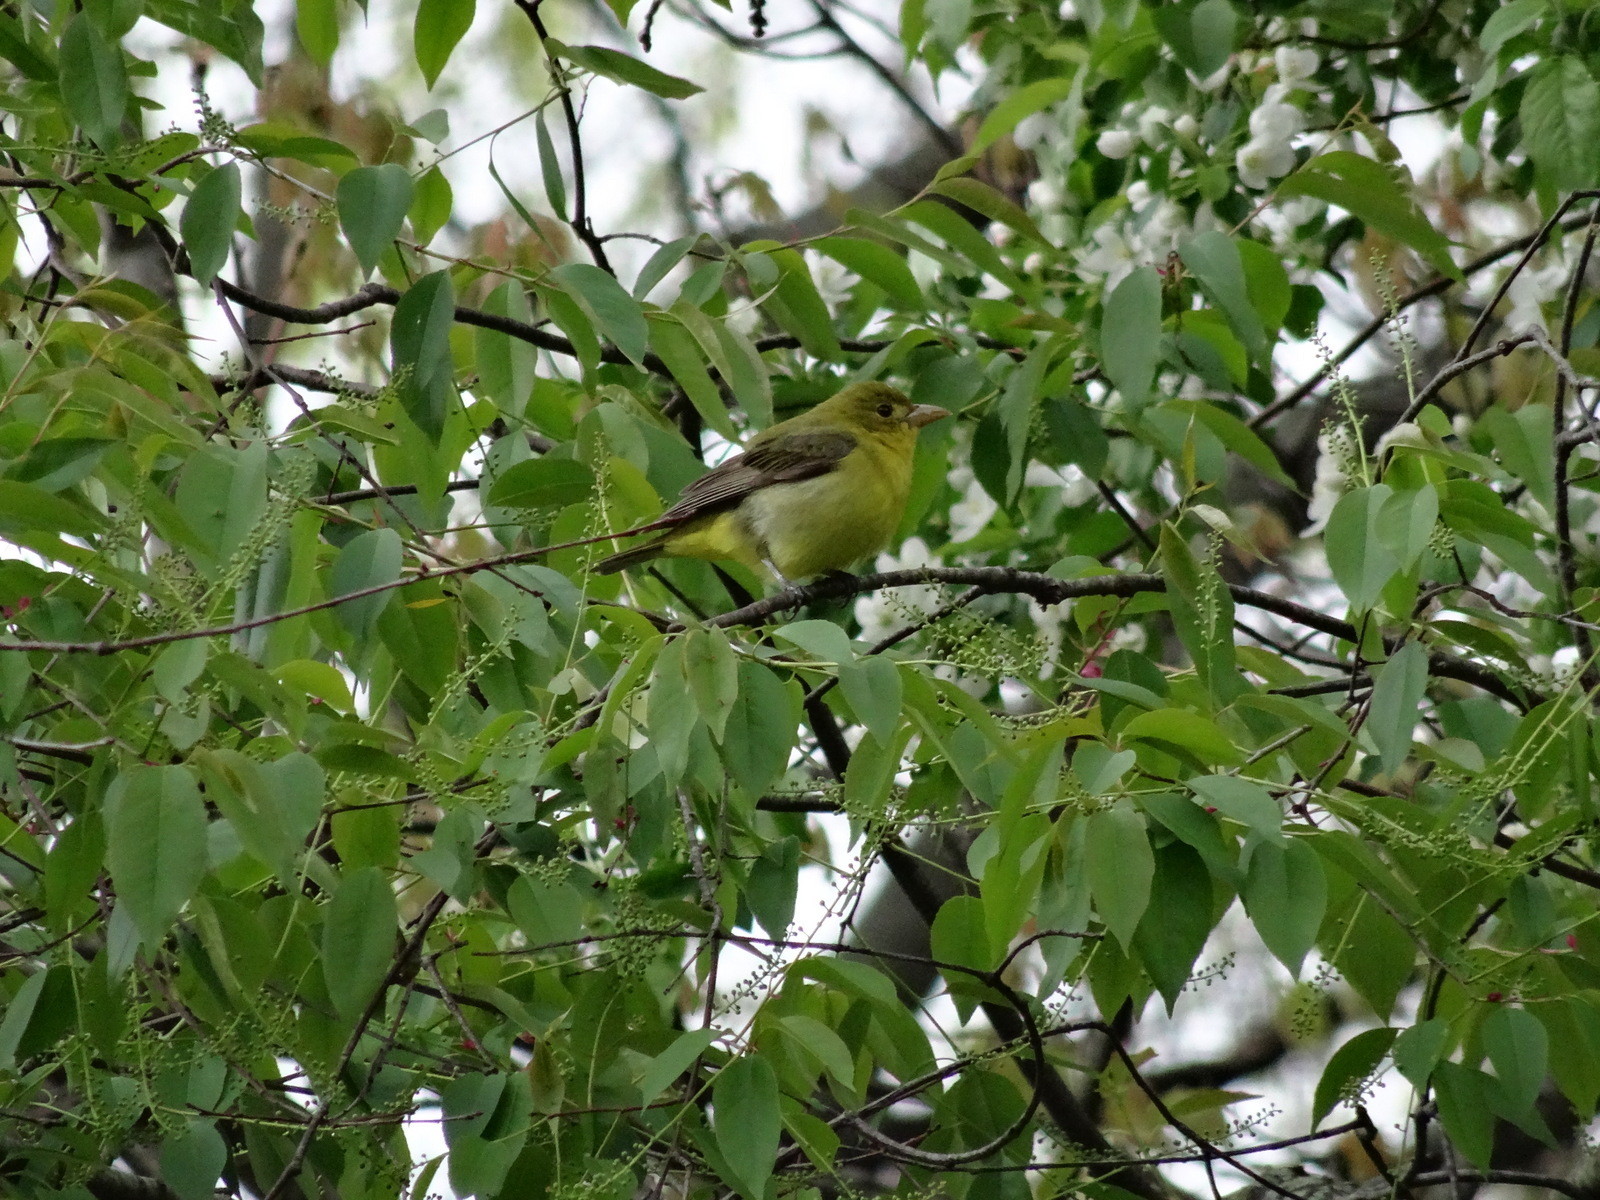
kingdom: Animalia
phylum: Chordata
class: Aves
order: Passeriformes
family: Cardinalidae
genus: Piranga
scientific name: Piranga olivacea
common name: Scarlet tanager
